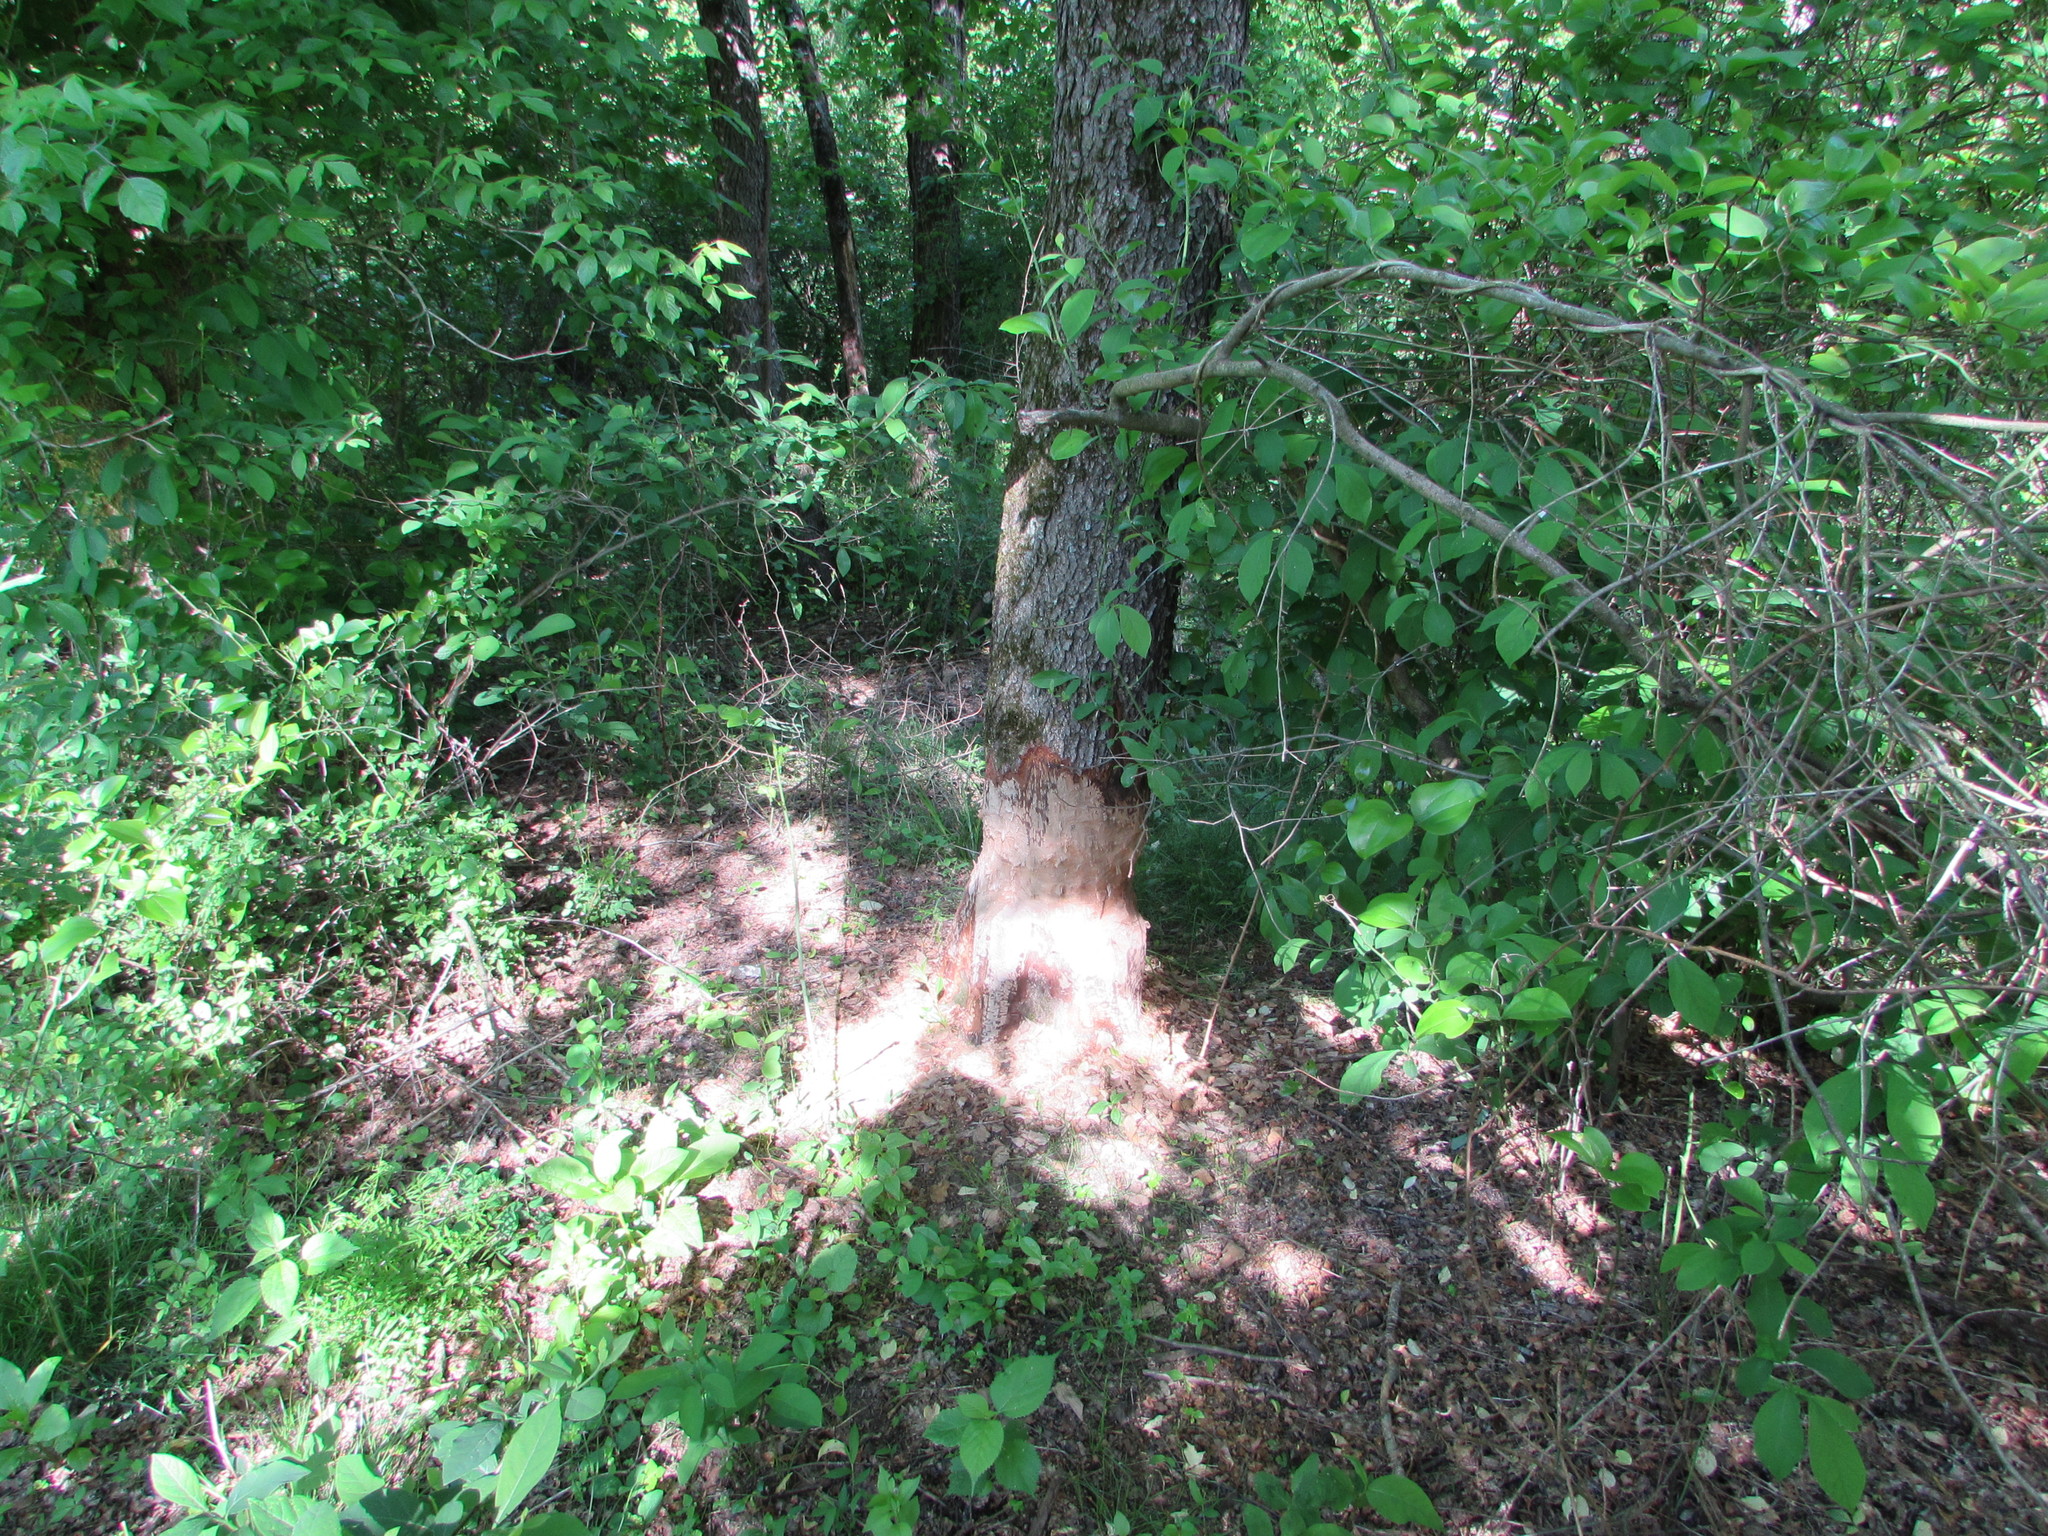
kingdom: Animalia
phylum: Chordata
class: Mammalia
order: Rodentia
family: Castoridae
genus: Castor
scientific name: Castor canadensis
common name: American beaver
